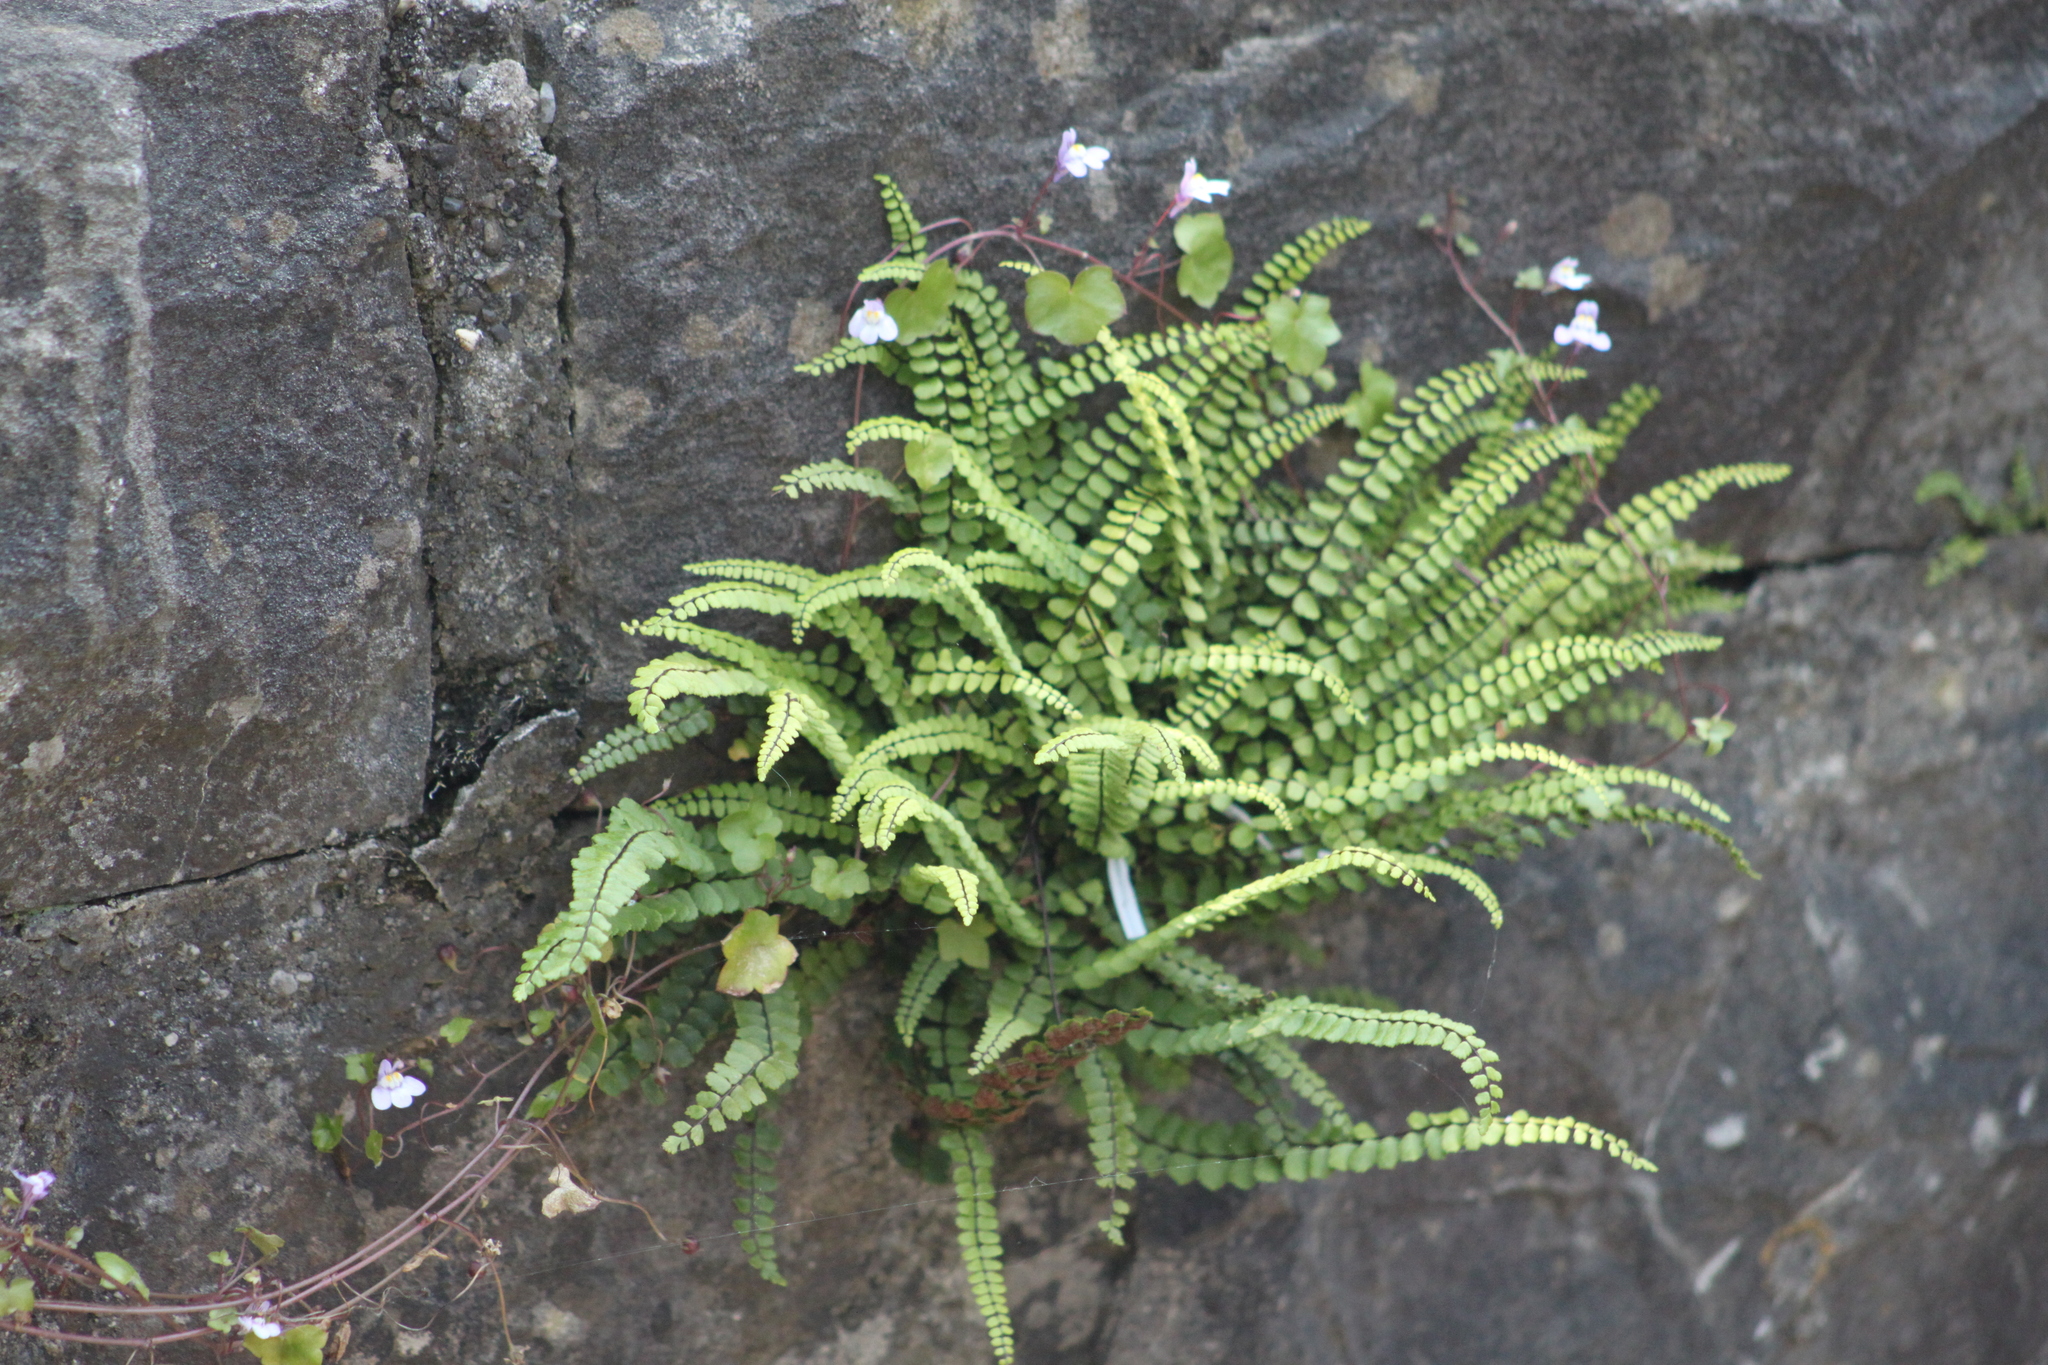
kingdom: Plantae
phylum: Tracheophyta
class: Polypodiopsida
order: Polypodiales
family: Aspleniaceae
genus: Asplenium
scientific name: Asplenium trichomanes
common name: Maidenhair spleenwort
